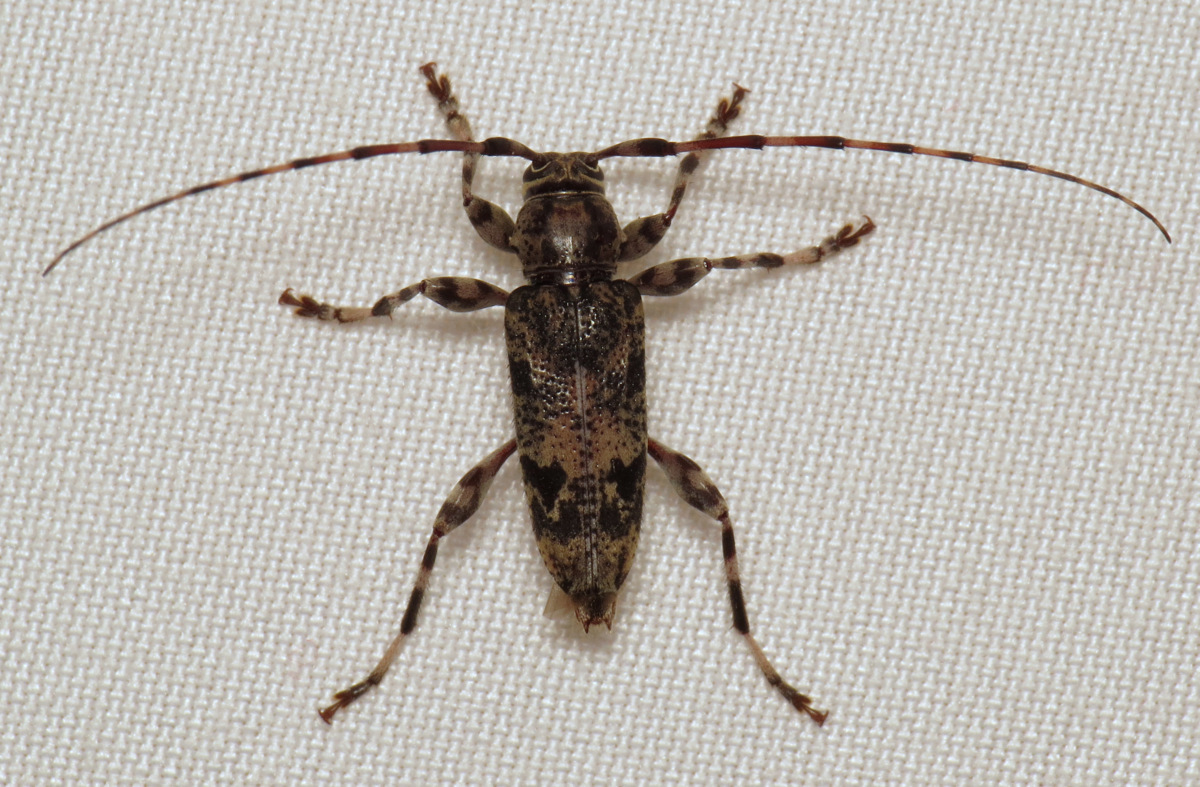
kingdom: Animalia
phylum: Arthropoda
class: Insecta
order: Coleoptera
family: Cerambycidae
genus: Graphisurus
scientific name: Graphisurus fasciatus
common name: Banded graphisurus
